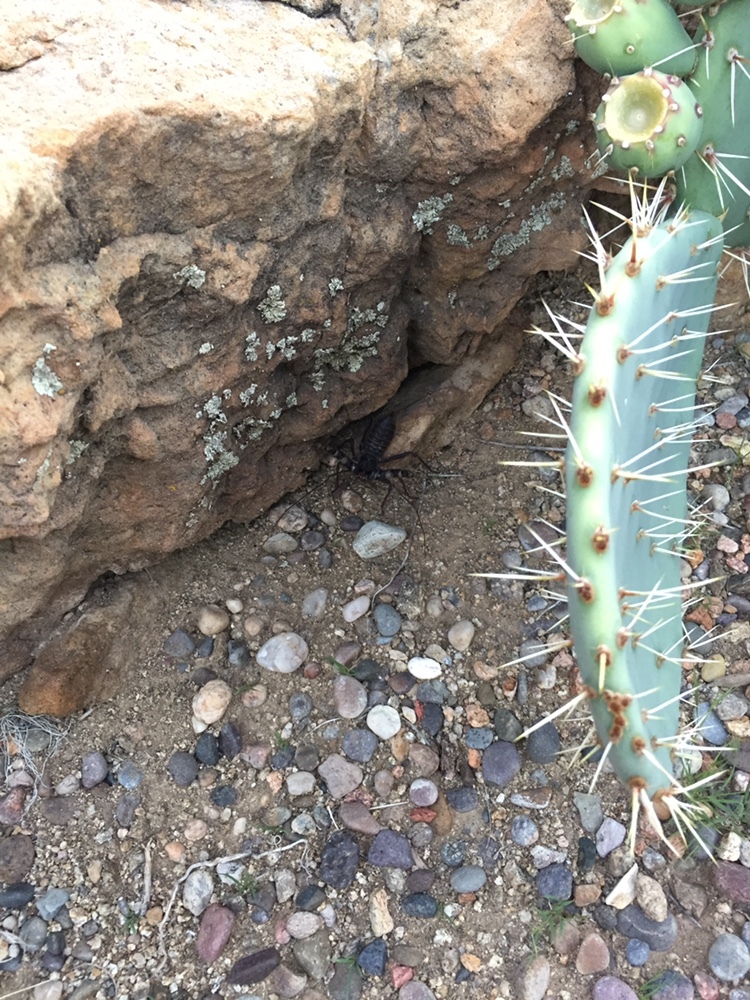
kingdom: Animalia
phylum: Arthropoda
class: Arachnida
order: Uropygi
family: Thelyphonidae
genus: Mastigoproctus
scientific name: Mastigoproctus giganteus
